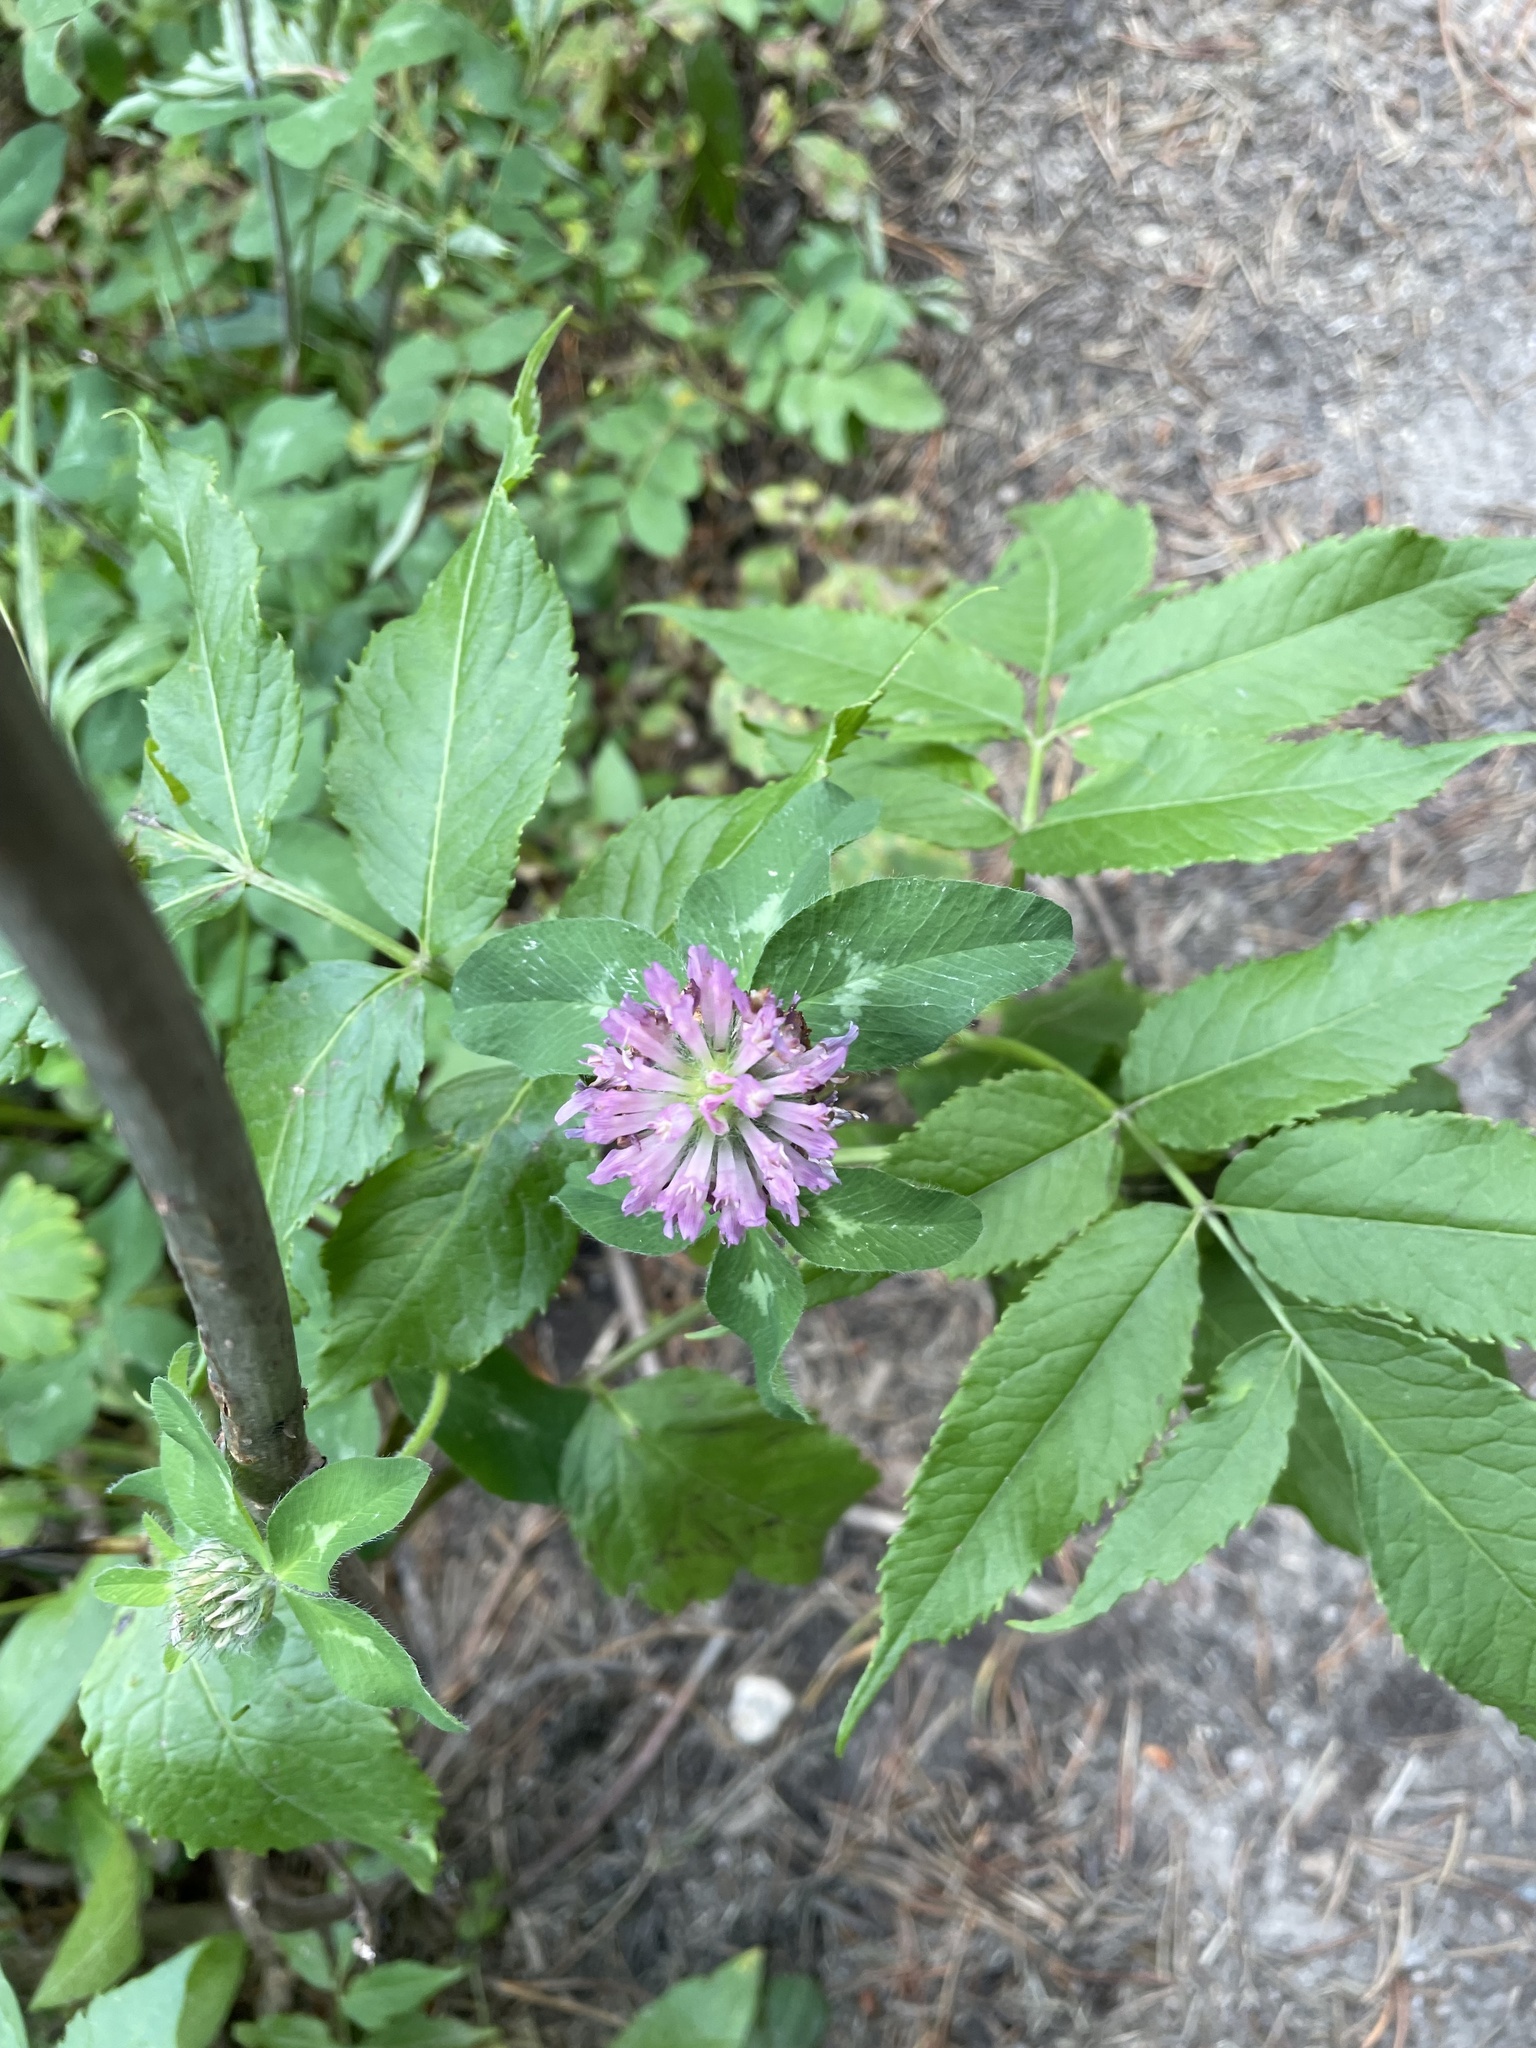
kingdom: Plantae
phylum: Tracheophyta
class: Magnoliopsida
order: Fabales
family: Fabaceae
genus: Trifolium
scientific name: Trifolium pratense
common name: Red clover
